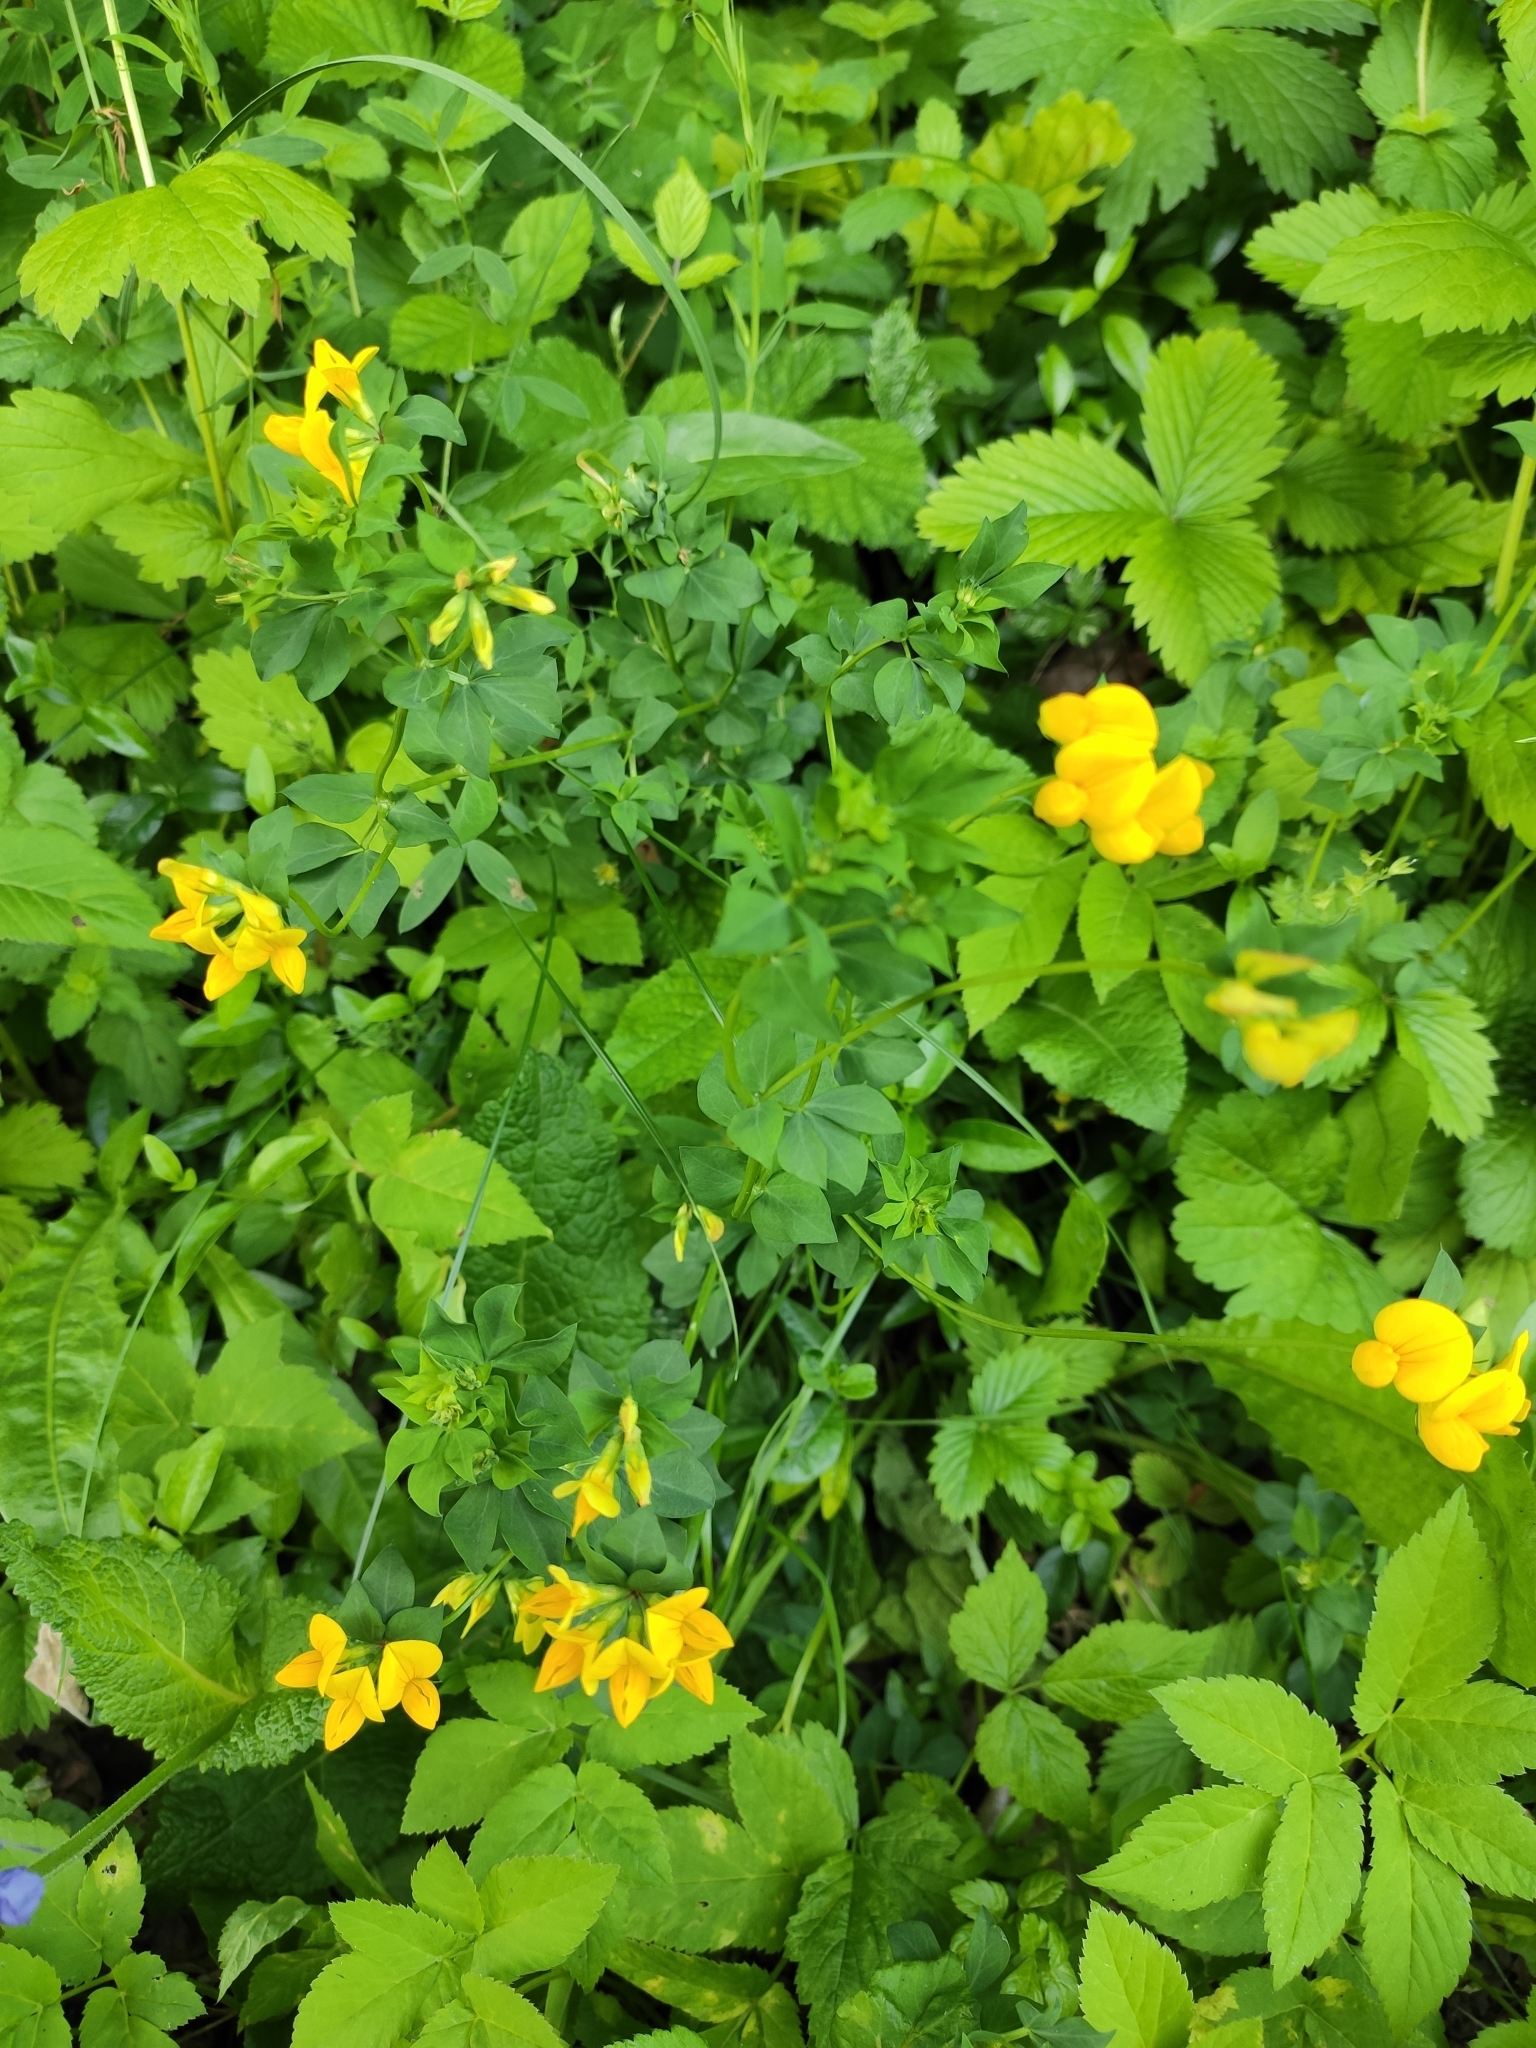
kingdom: Plantae
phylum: Tracheophyta
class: Magnoliopsida
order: Fabales
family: Fabaceae
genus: Lotus
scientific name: Lotus corniculatus
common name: Common bird's-foot-trefoil
